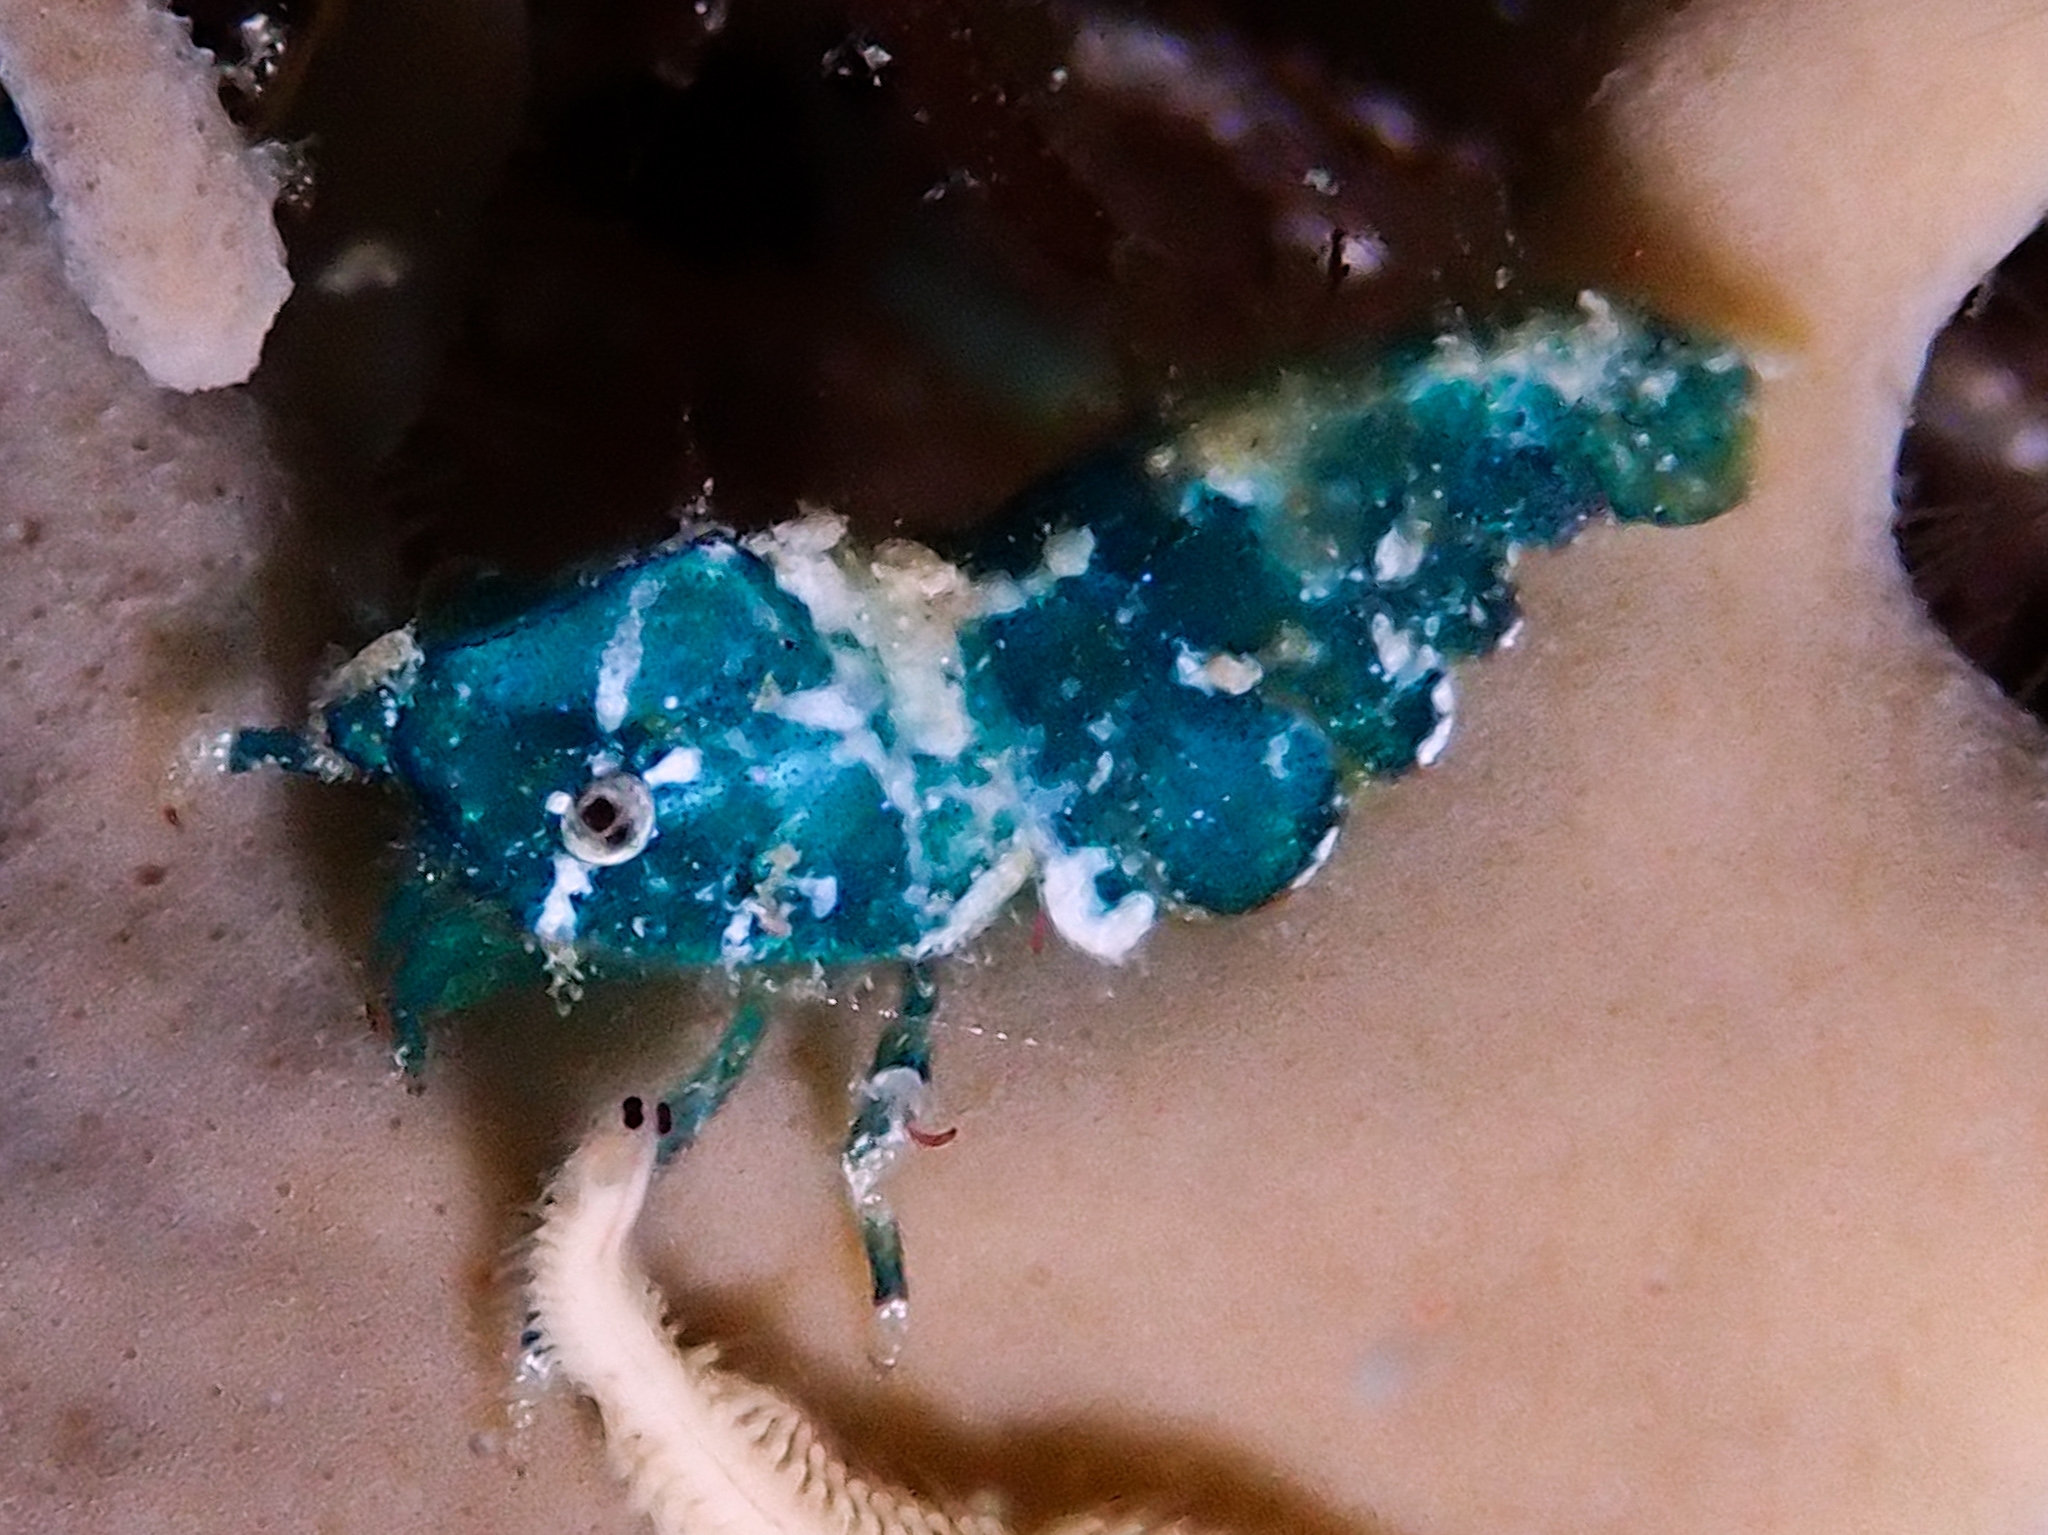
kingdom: Animalia
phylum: Arthropoda
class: Malacostraca
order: Decapoda
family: Hippolytidae
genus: Trachycaris
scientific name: Trachycaris rugosa
